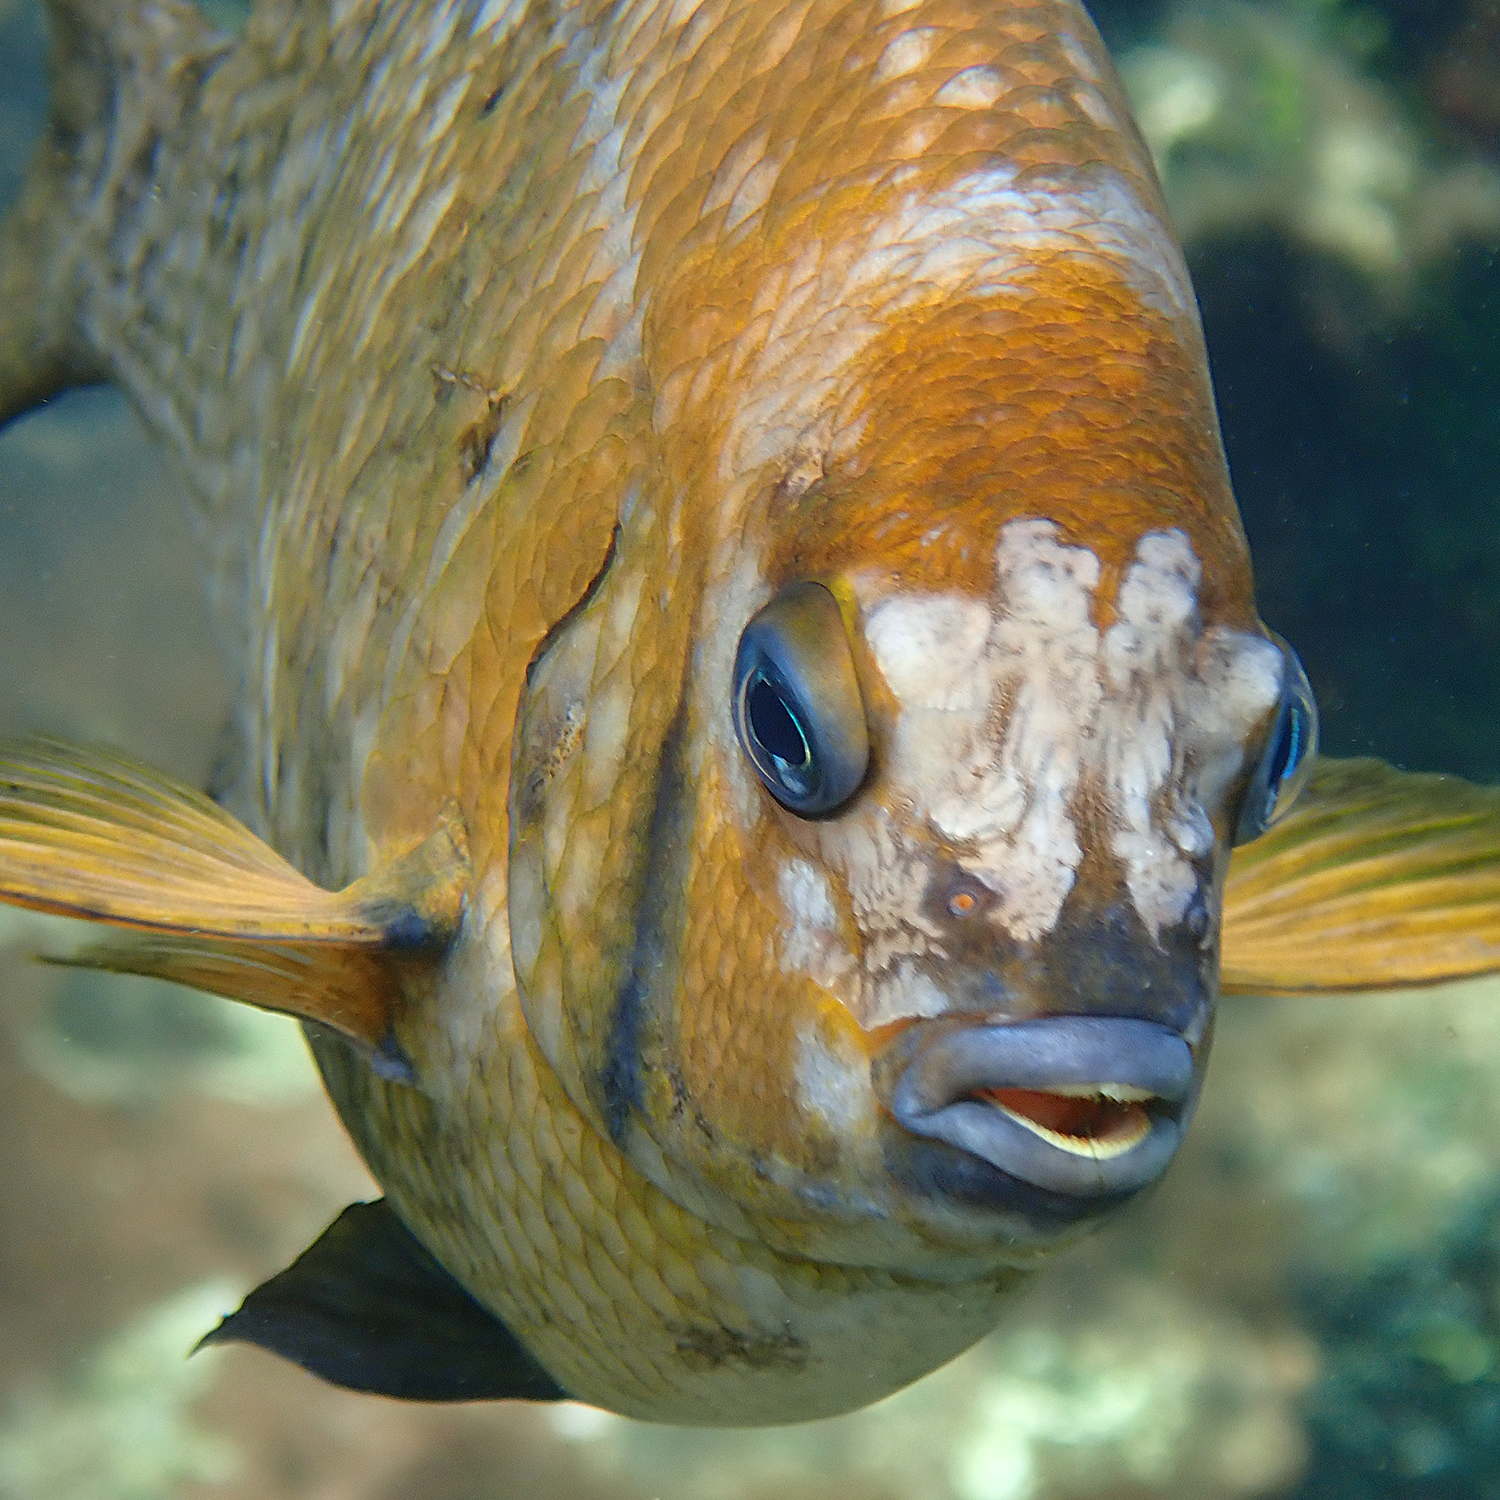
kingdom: Animalia
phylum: Chordata
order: Perciformes
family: Pomacentridae
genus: Parma
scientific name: Parma polylepis
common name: Banded parma
